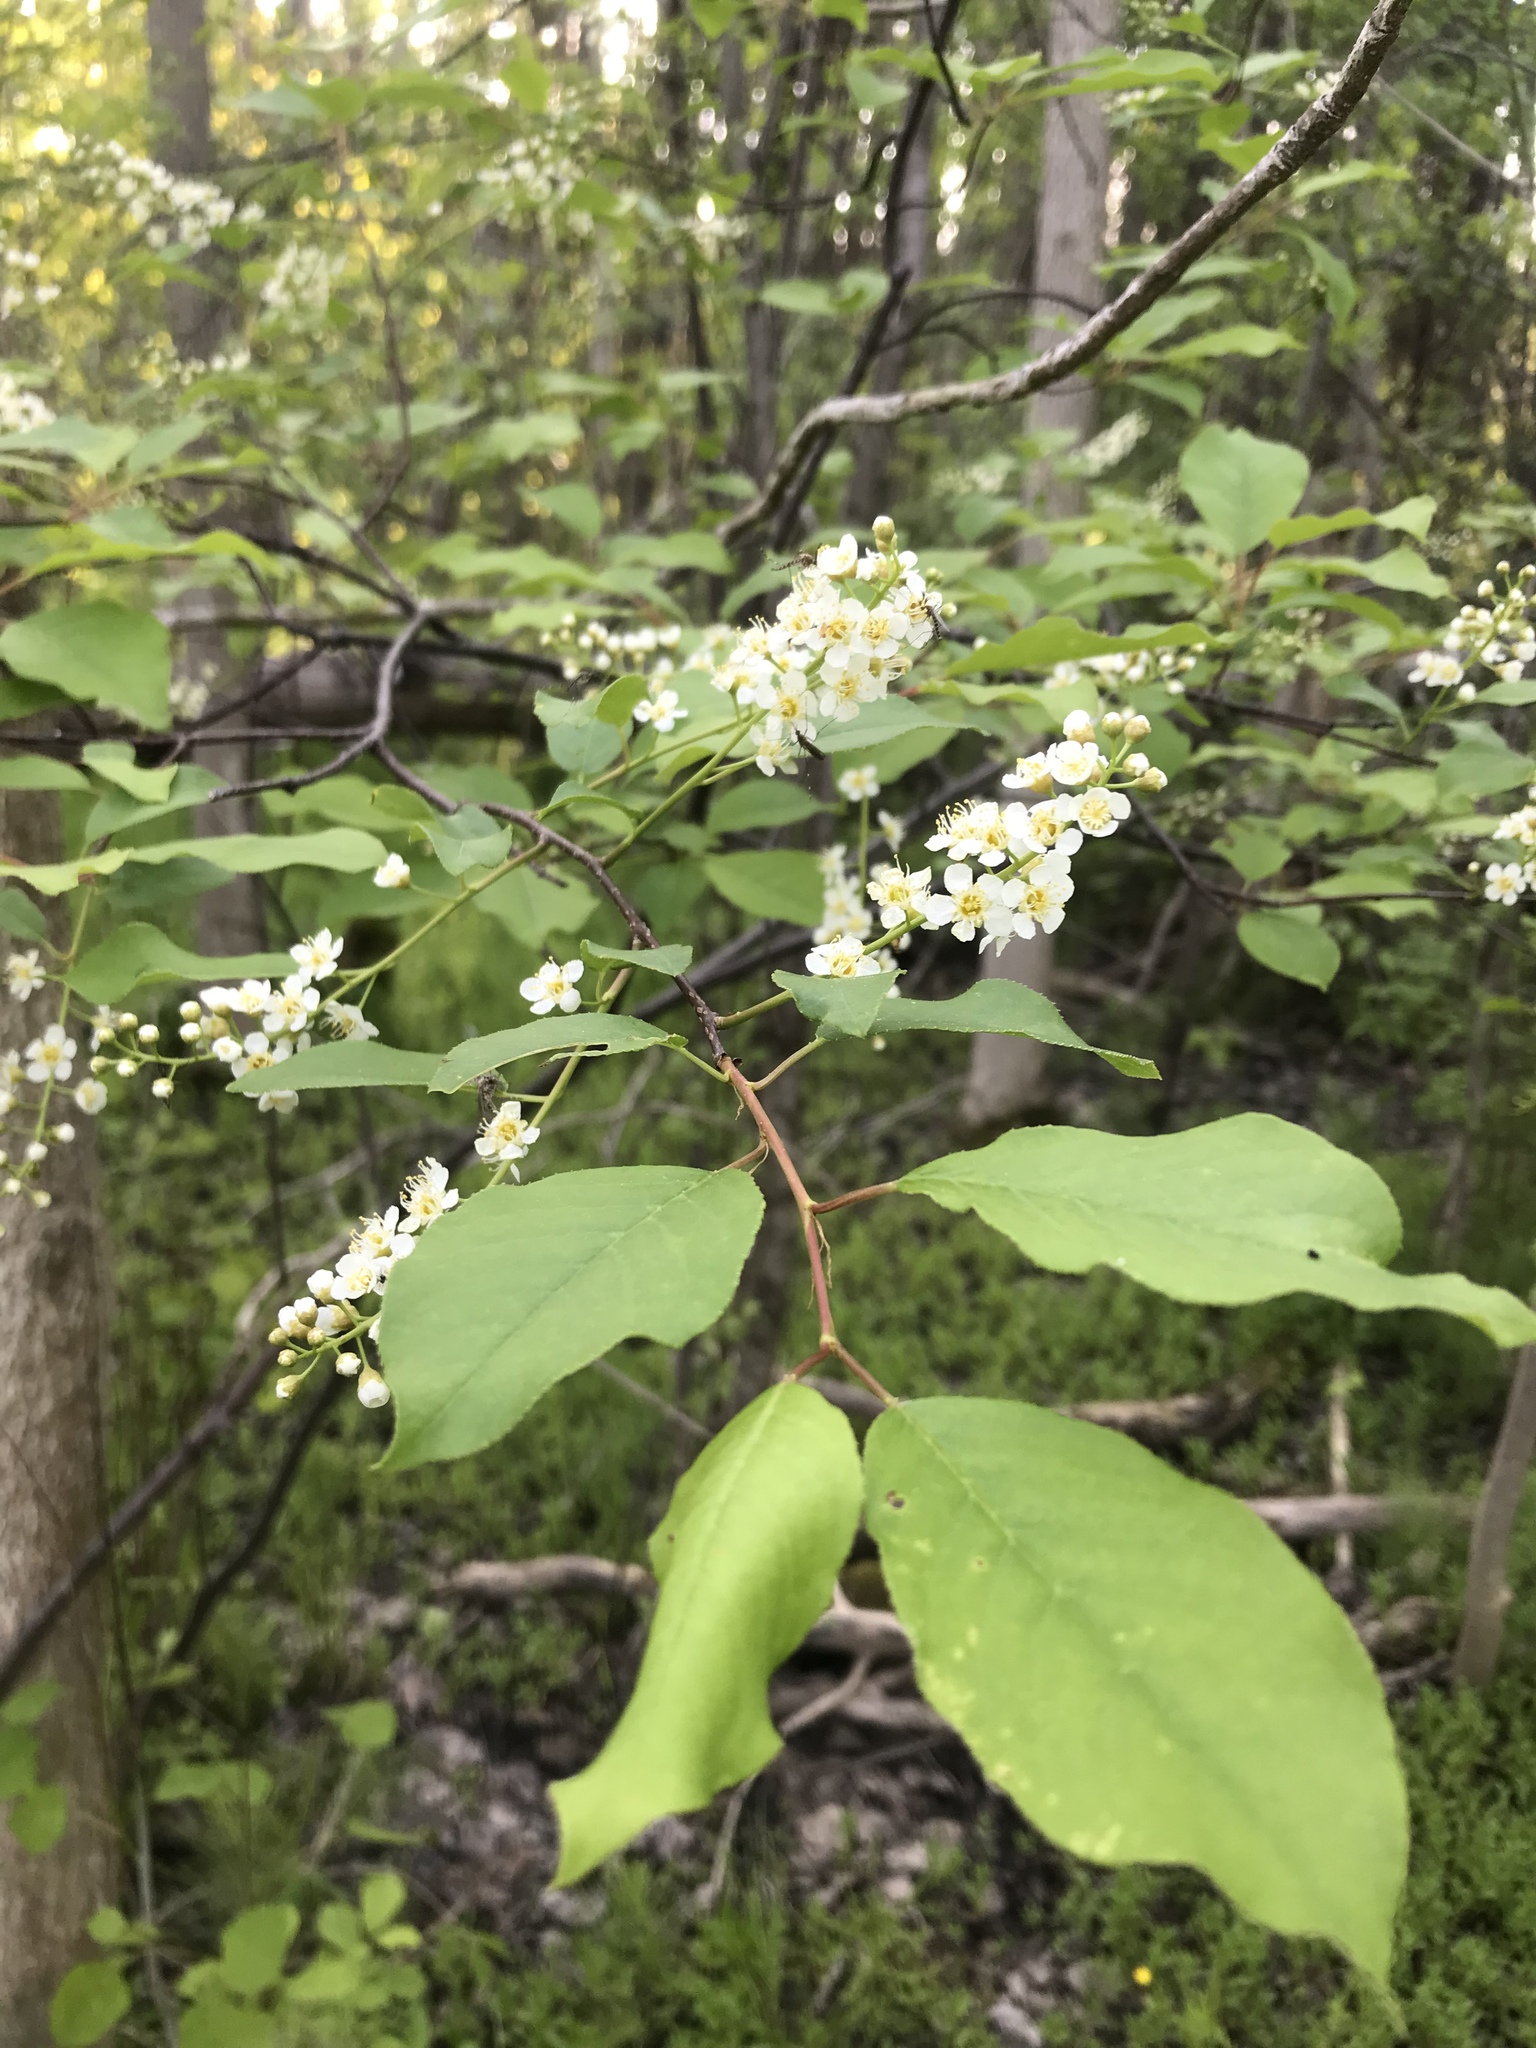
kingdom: Plantae
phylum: Tracheophyta
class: Magnoliopsida
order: Rosales
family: Rosaceae
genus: Prunus
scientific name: Prunus virginiana
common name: Chokecherry
